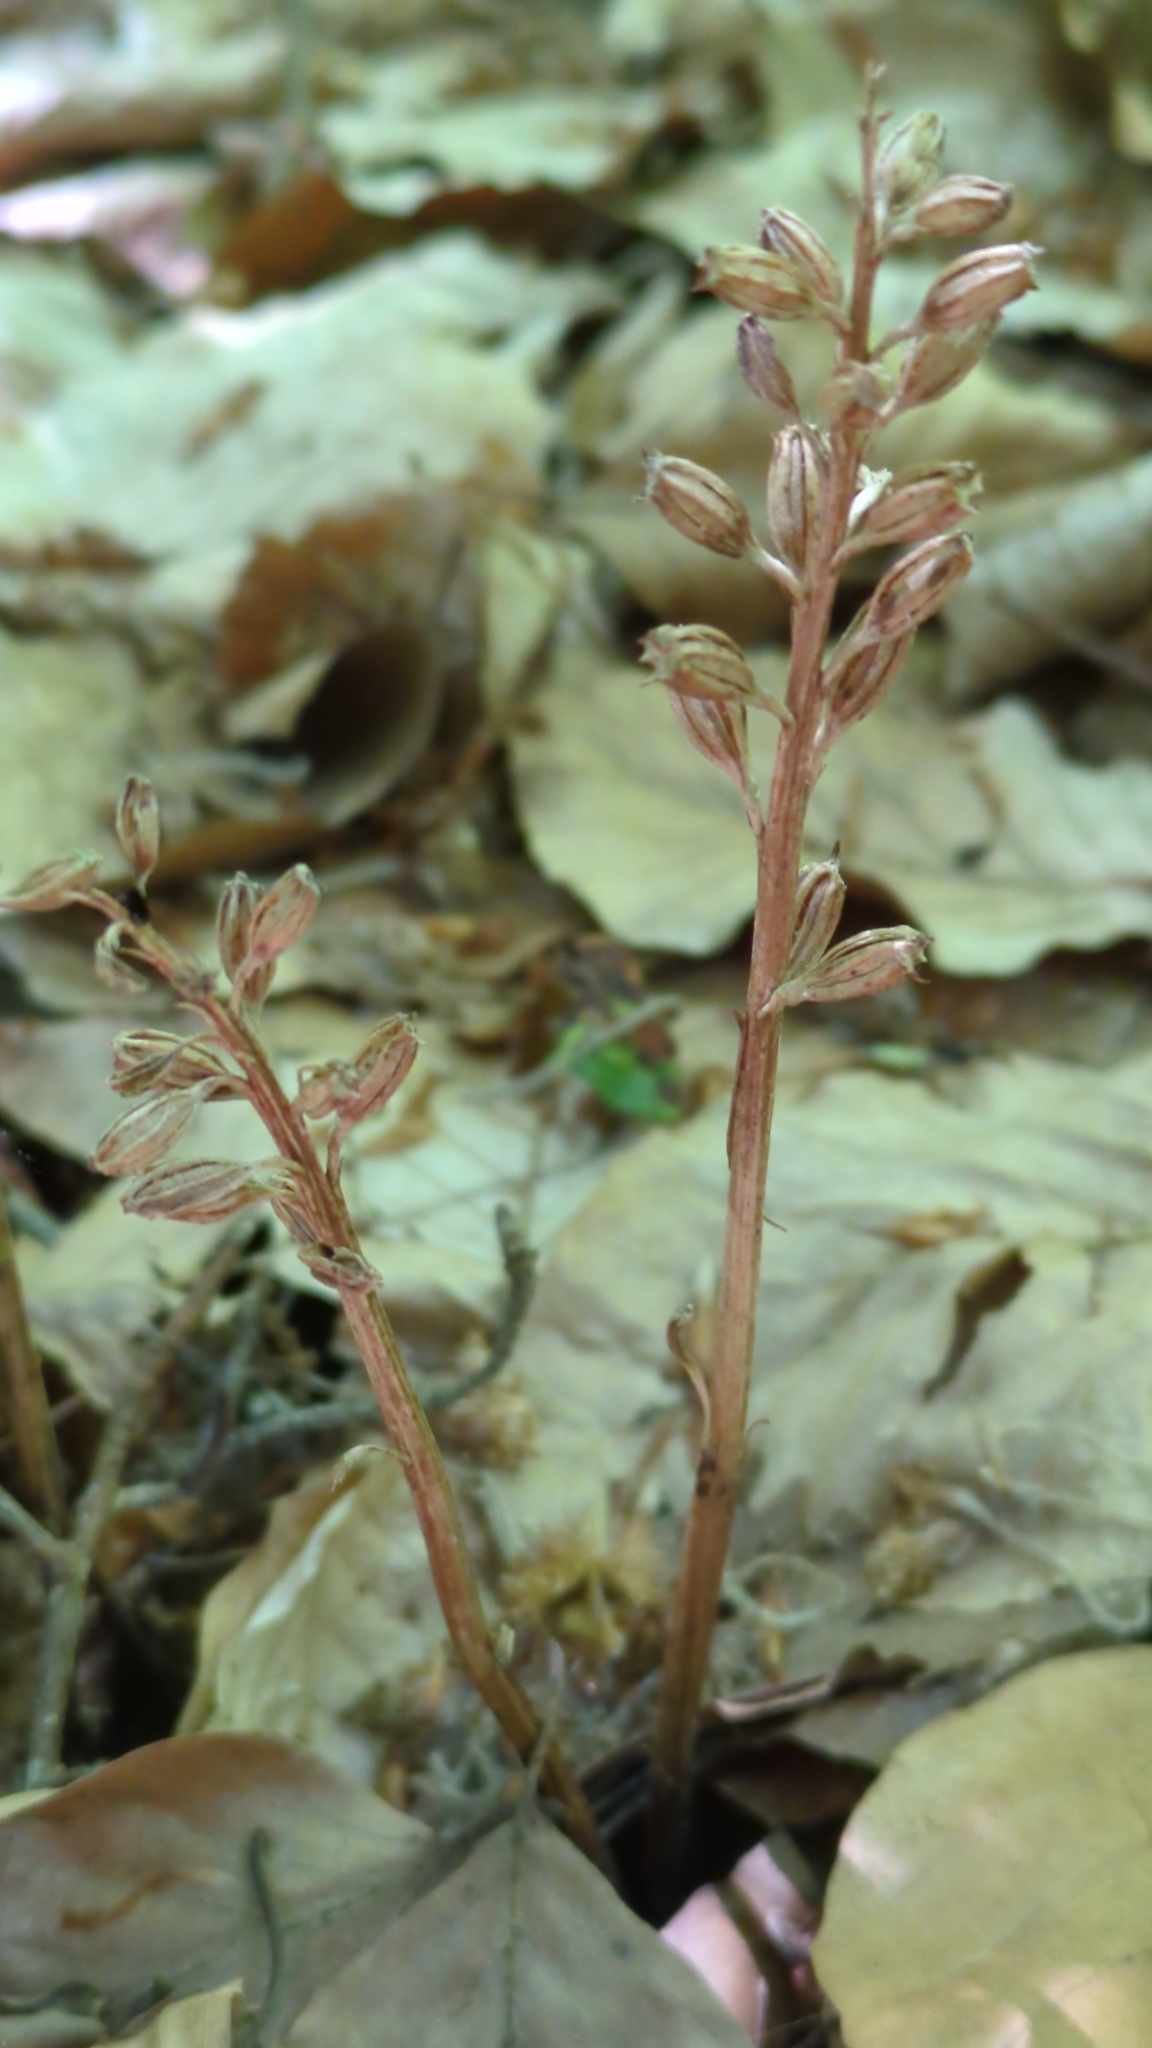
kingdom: Plantae
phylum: Tracheophyta
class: Liliopsida
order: Asparagales
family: Orchidaceae
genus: Neottia
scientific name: Neottia nidus-avis
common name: Bird's-nest orchid
